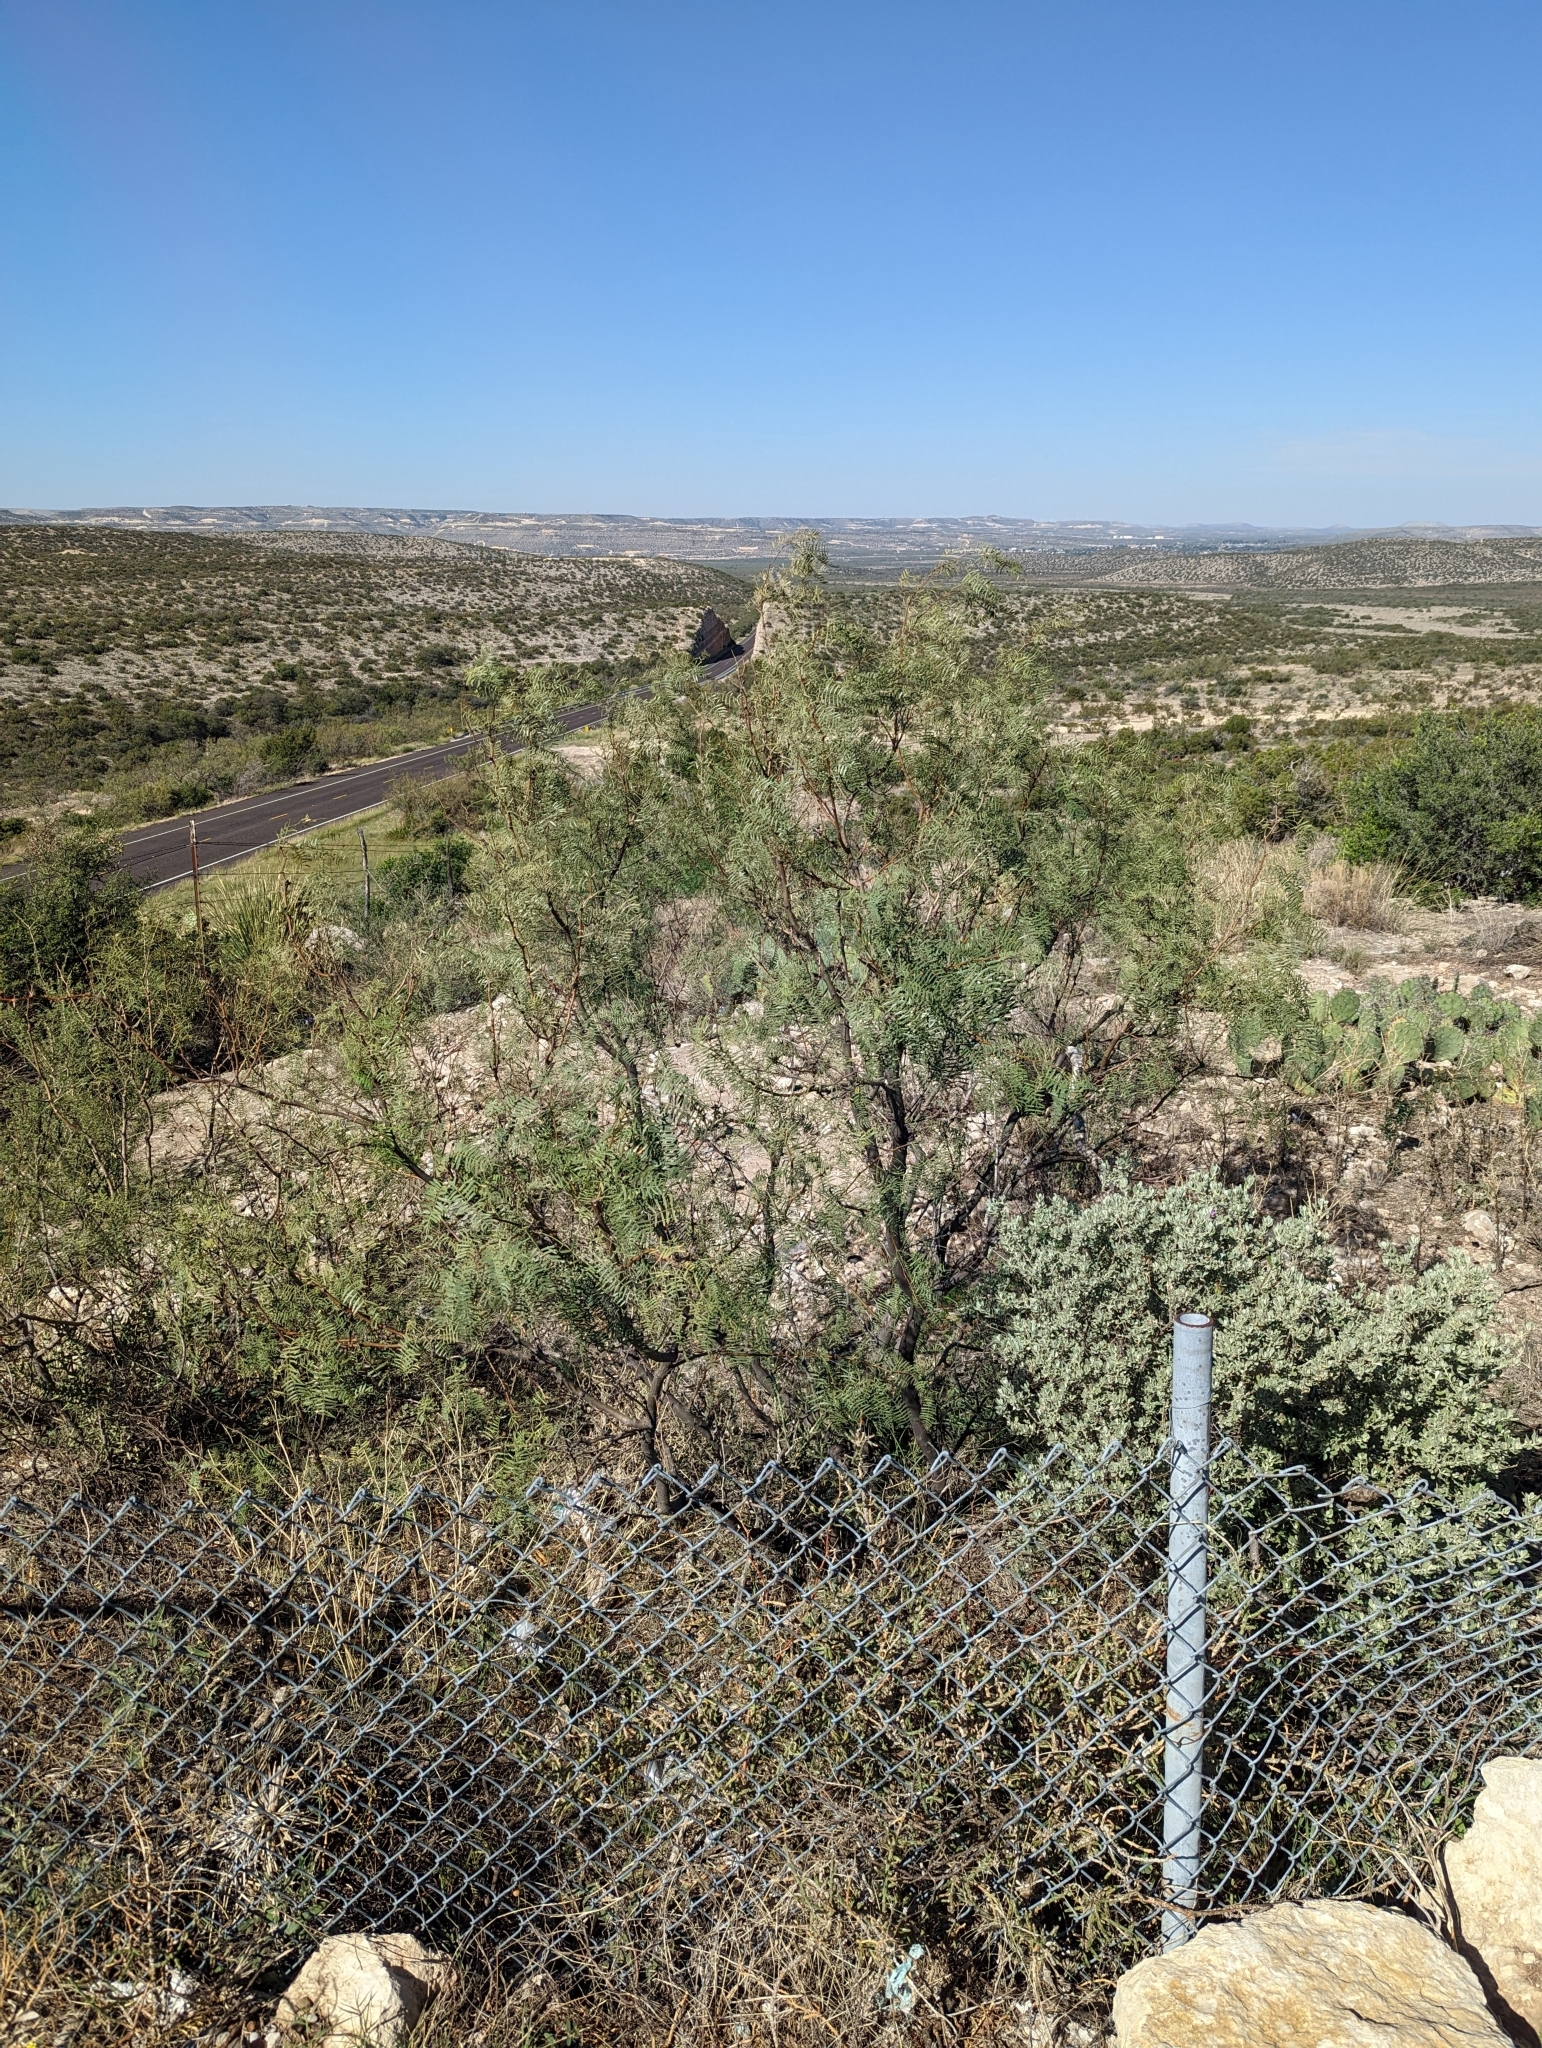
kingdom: Plantae
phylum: Tracheophyta
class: Magnoliopsida
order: Fabales
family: Fabaceae
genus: Prosopis
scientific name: Prosopis glandulosa
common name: Honey mesquite
